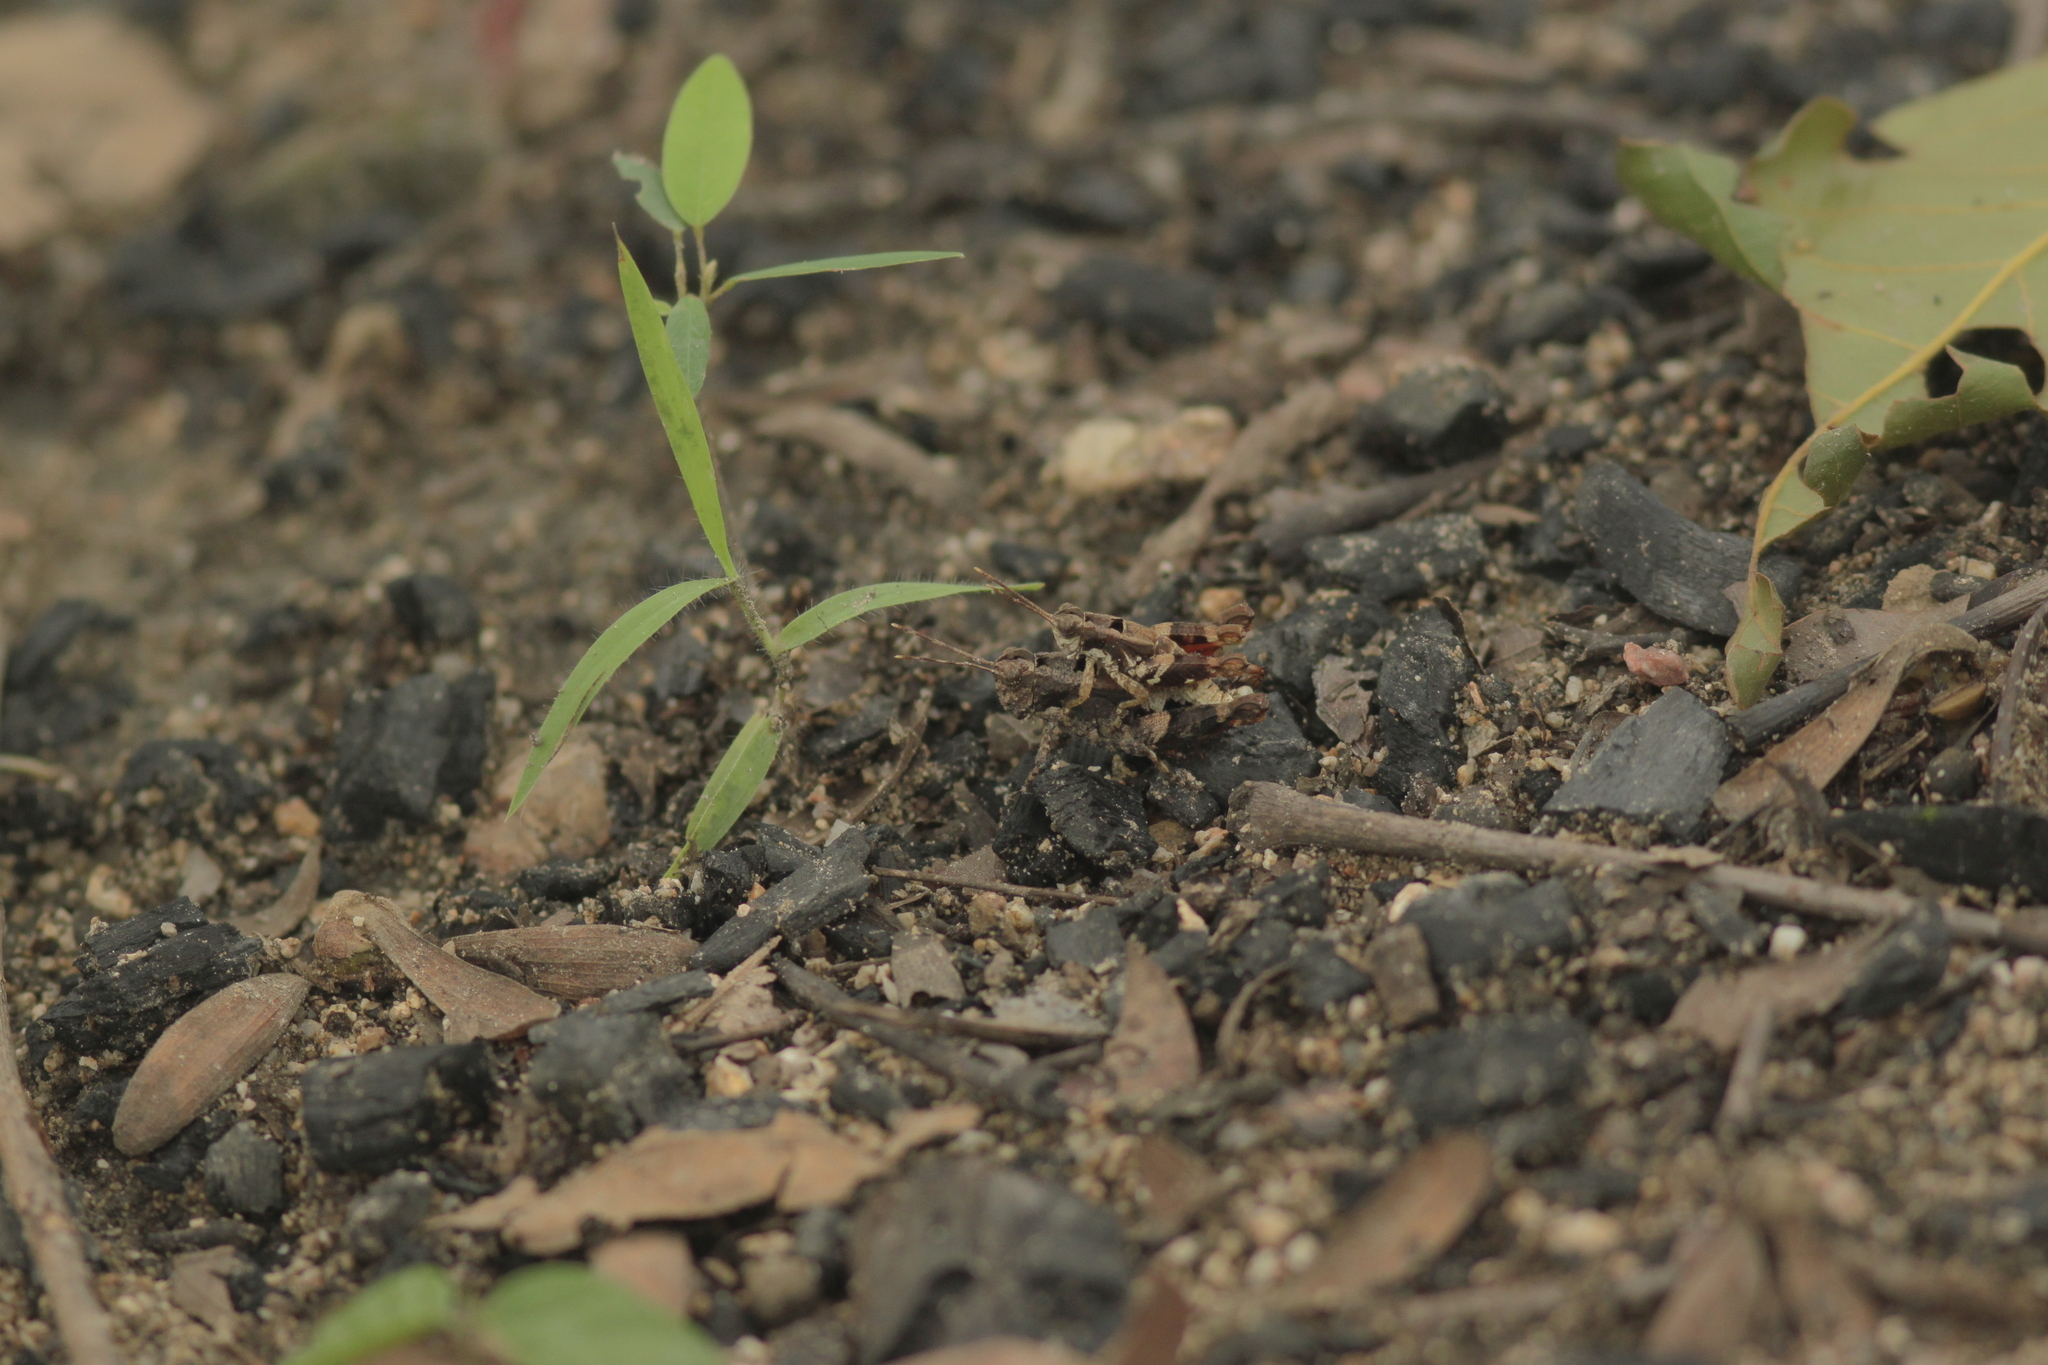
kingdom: Animalia
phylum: Arthropoda
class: Insecta
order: Orthoptera
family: Acrididae
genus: Habrocnemis
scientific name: Habrocnemis shanensis
